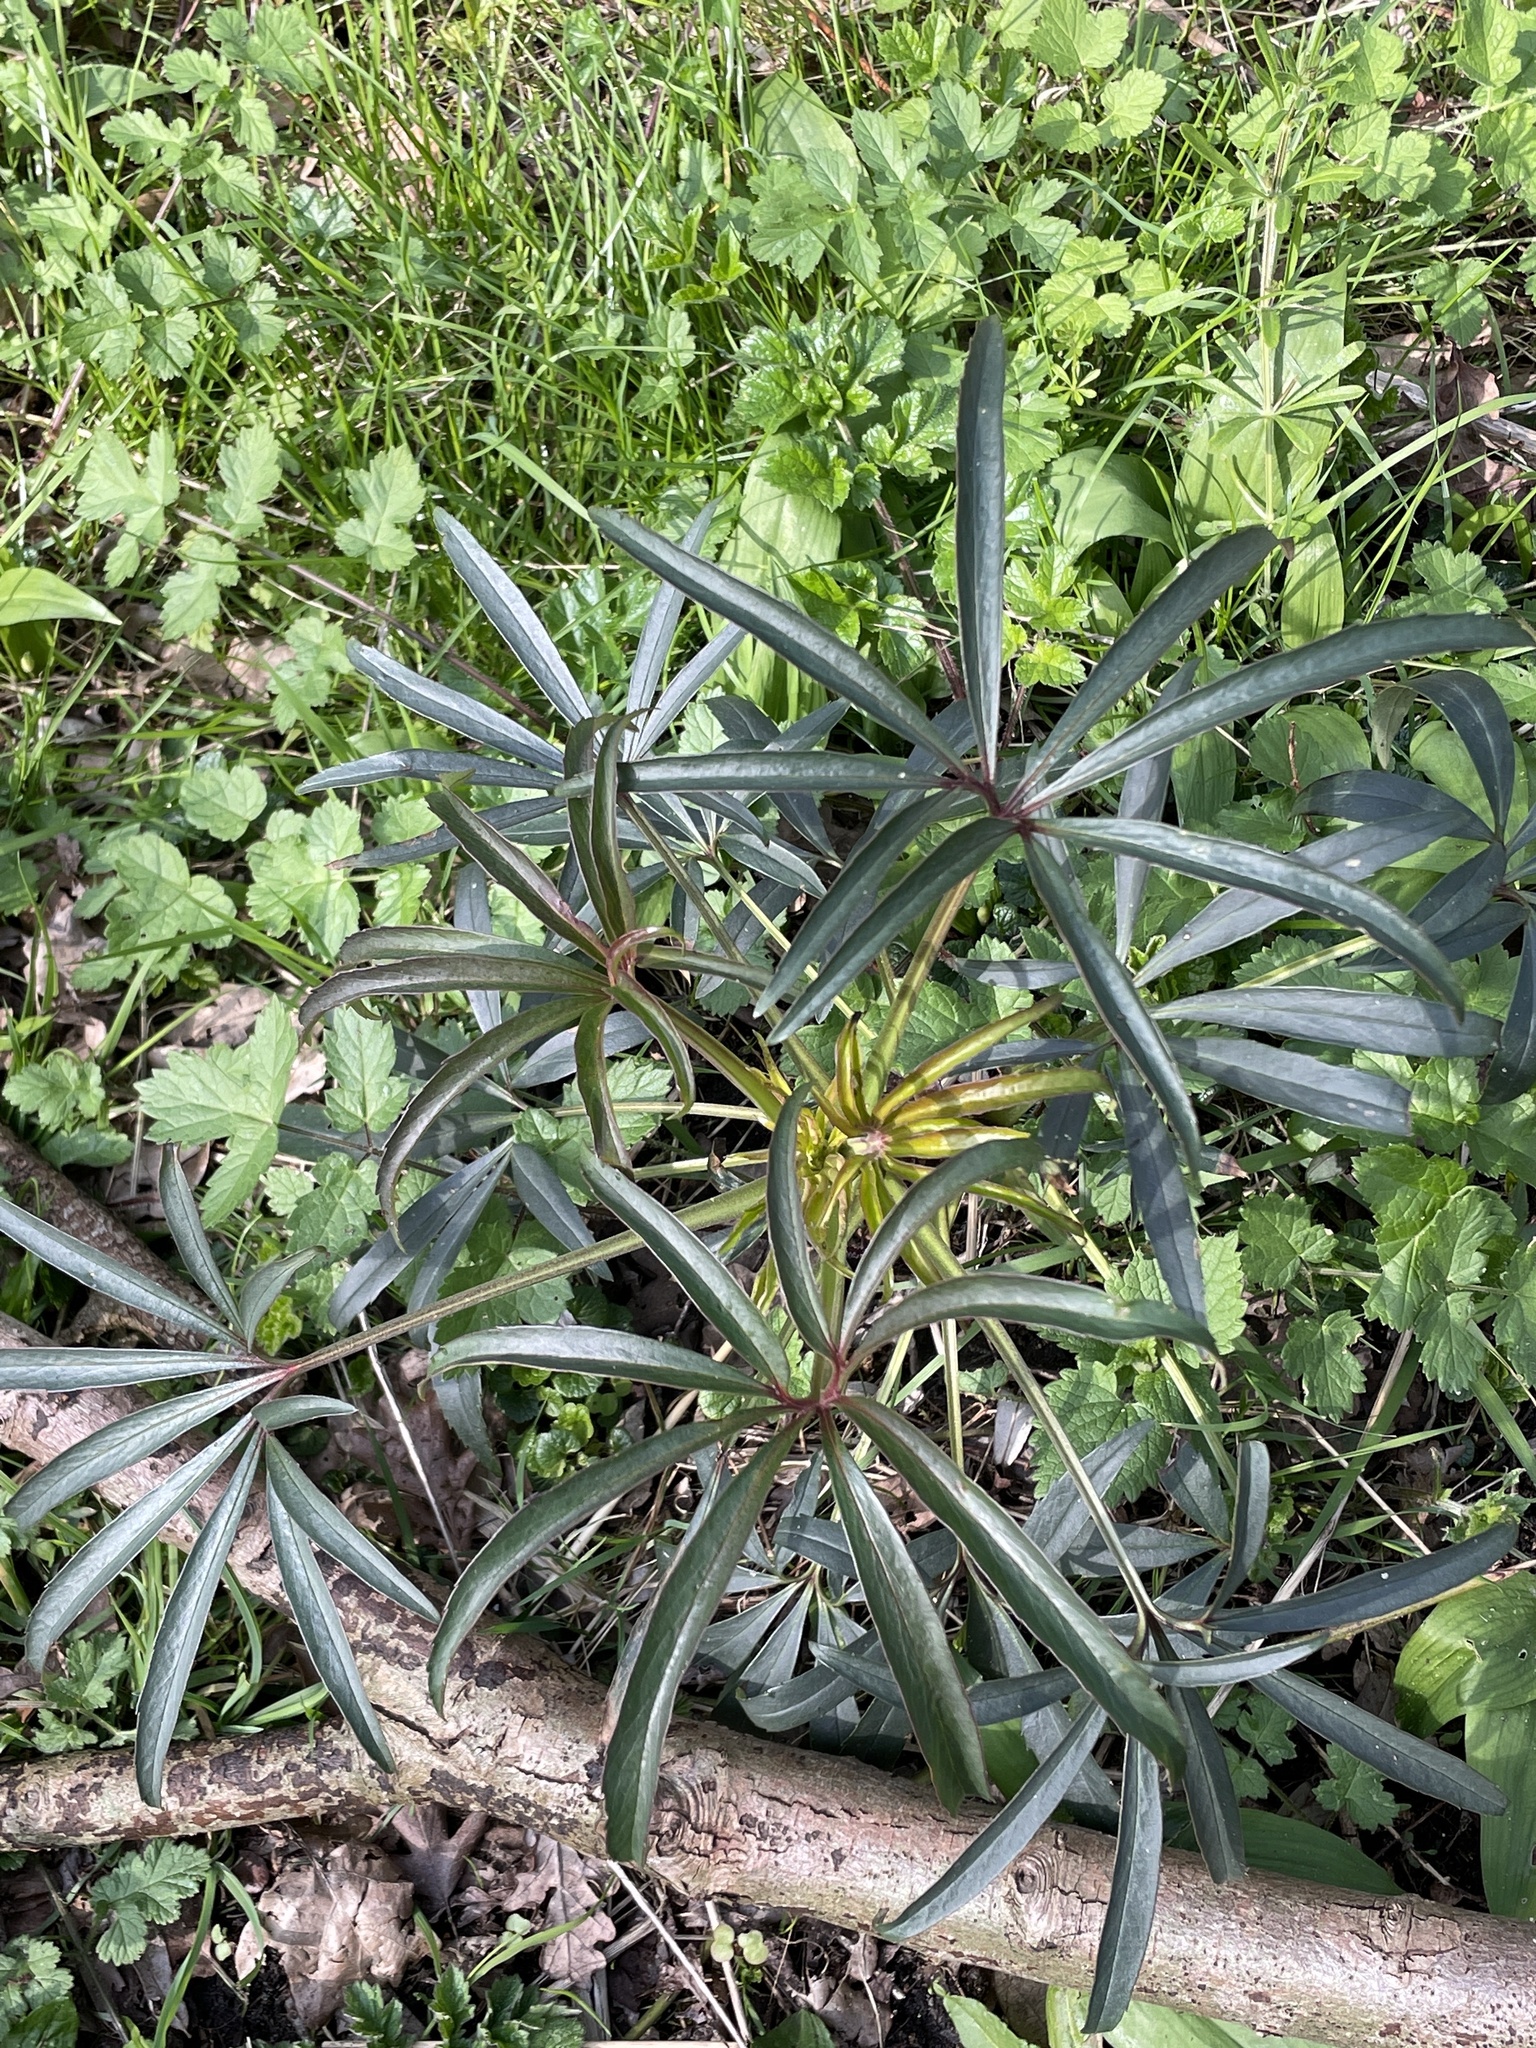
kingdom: Plantae
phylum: Tracheophyta
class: Magnoliopsida
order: Ranunculales
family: Ranunculaceae
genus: Helleborus
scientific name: Helleborus foetidus
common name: Stinking hellebore
